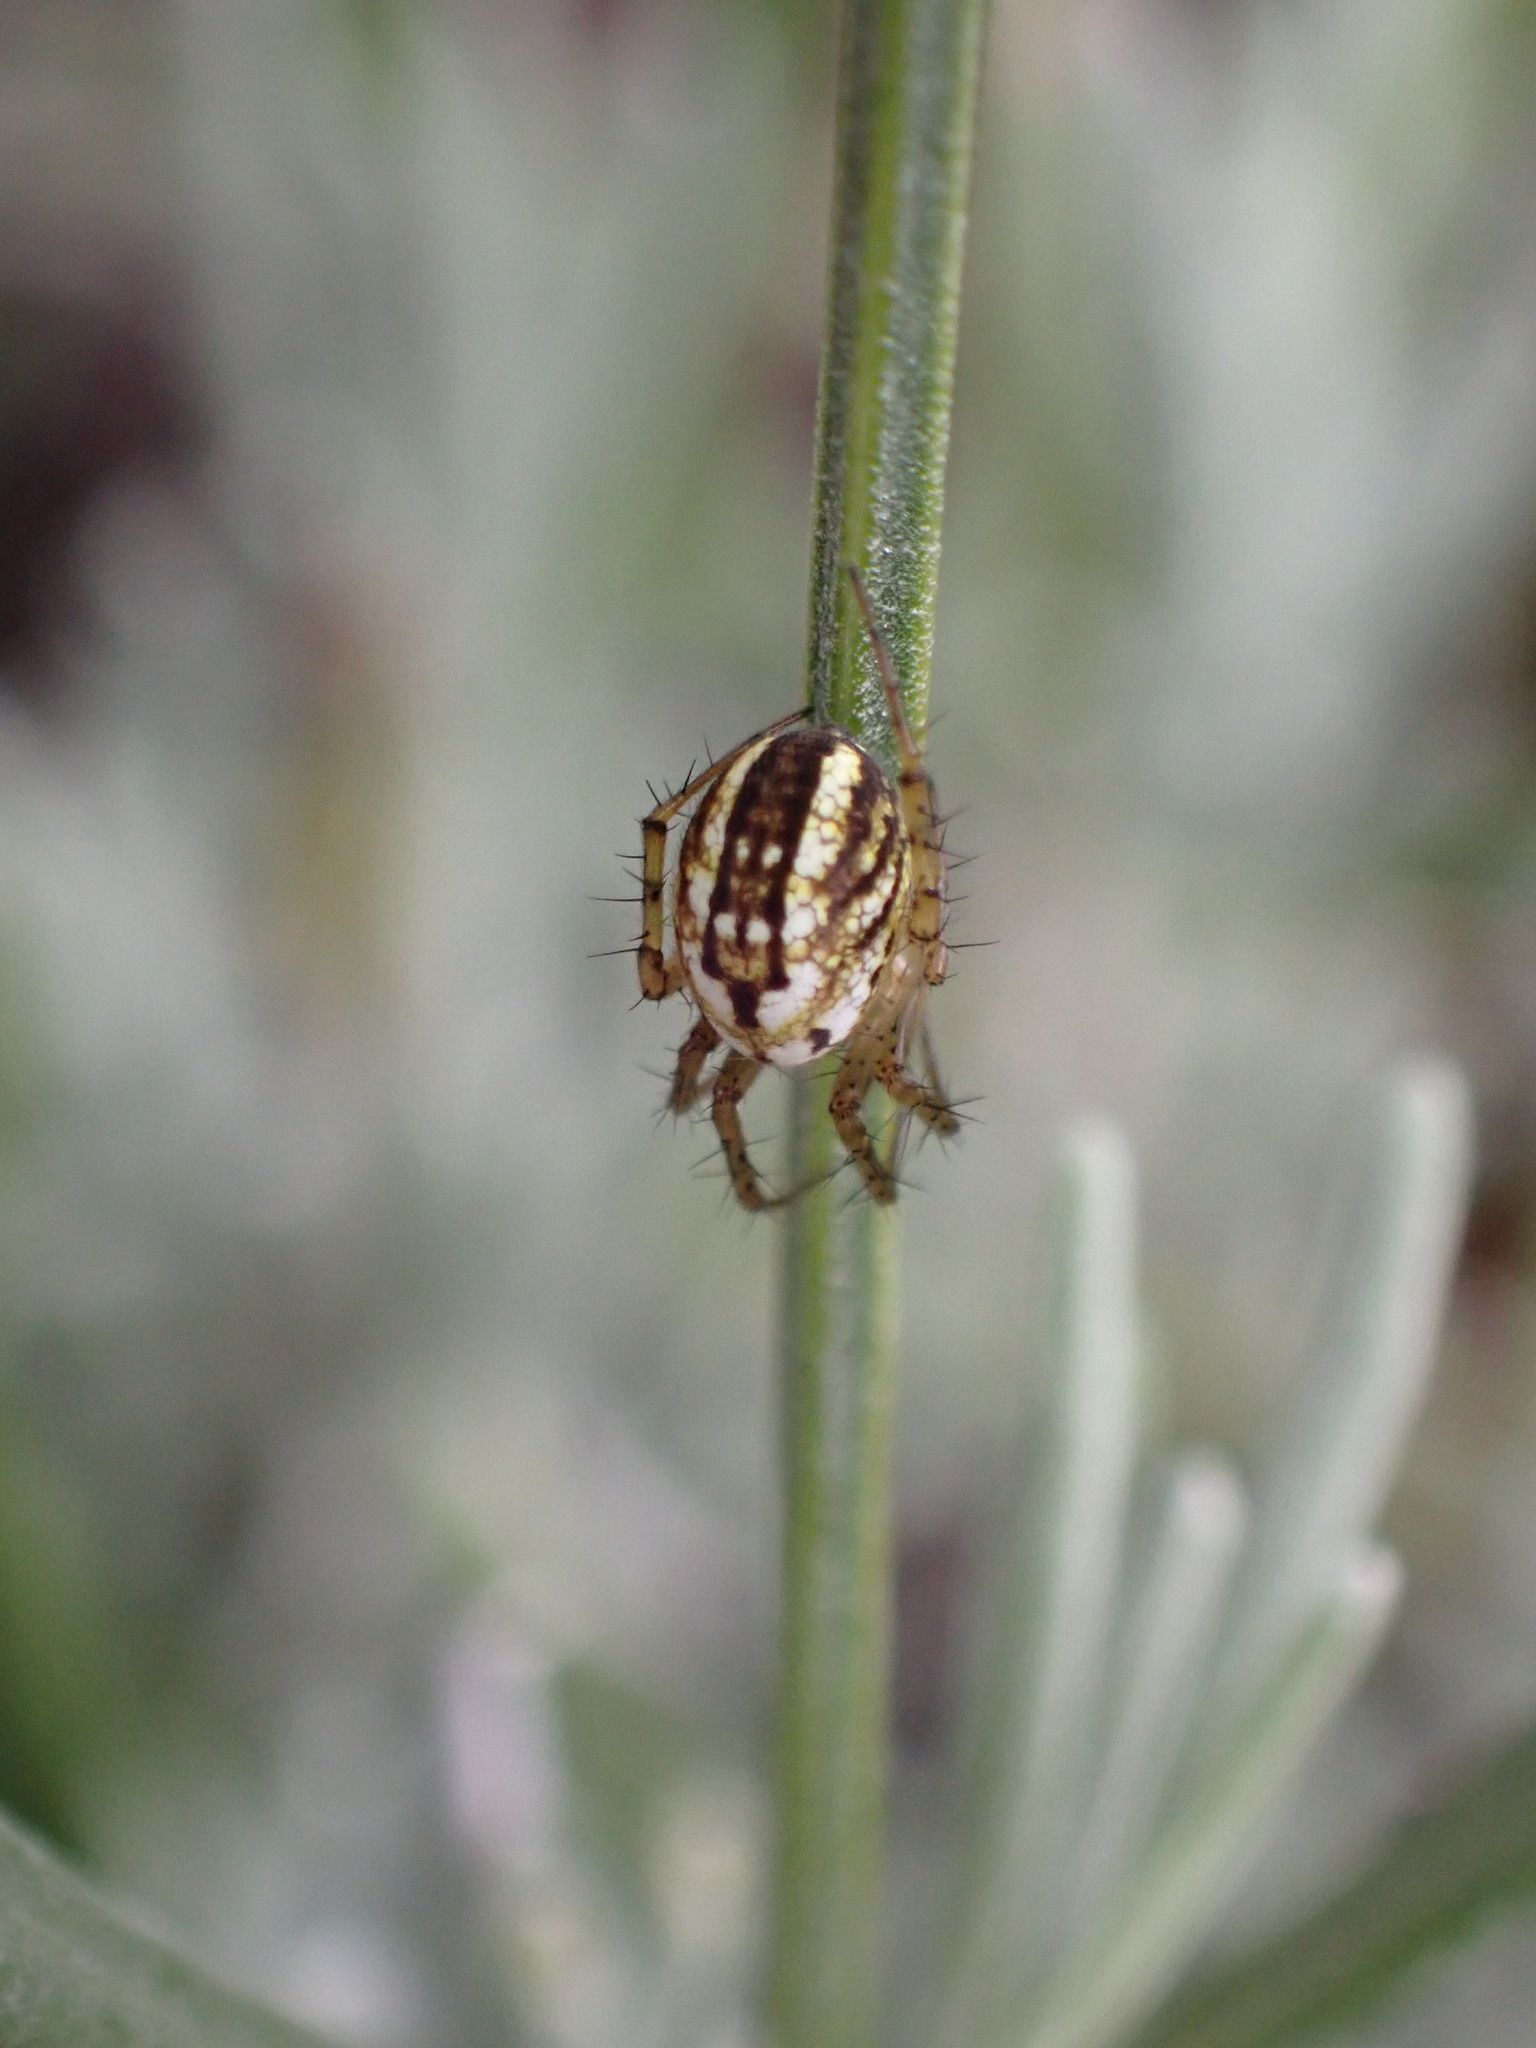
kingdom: Animalia
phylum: Arthropoda
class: Arachnida
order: Araneae
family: Araneidae
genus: Mangora
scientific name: Mangora acalypha
